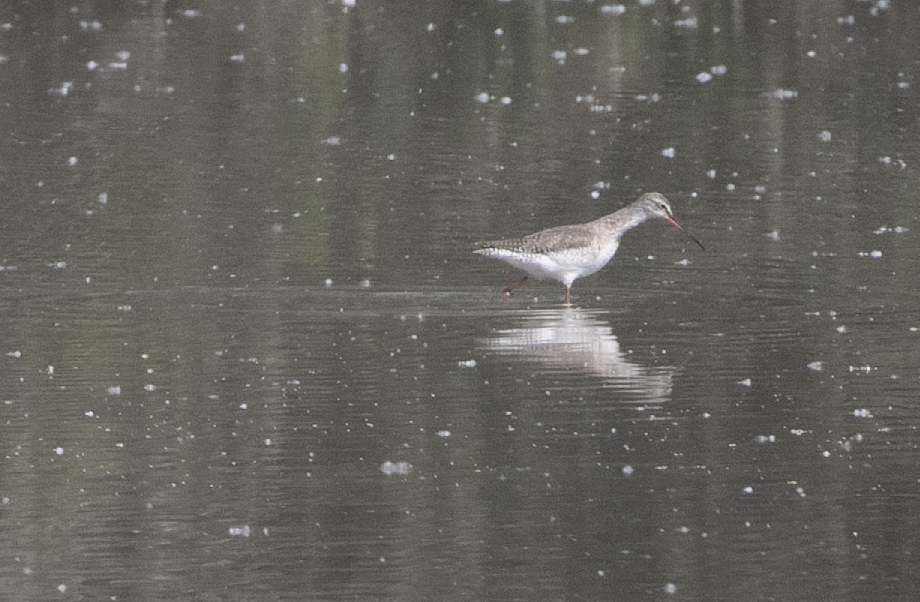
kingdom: Animalia
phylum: Chordata
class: Aves
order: Charadriiformes
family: Scolopacidae
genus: Tringa
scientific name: Tringa erythropus
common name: Spotted redshank
